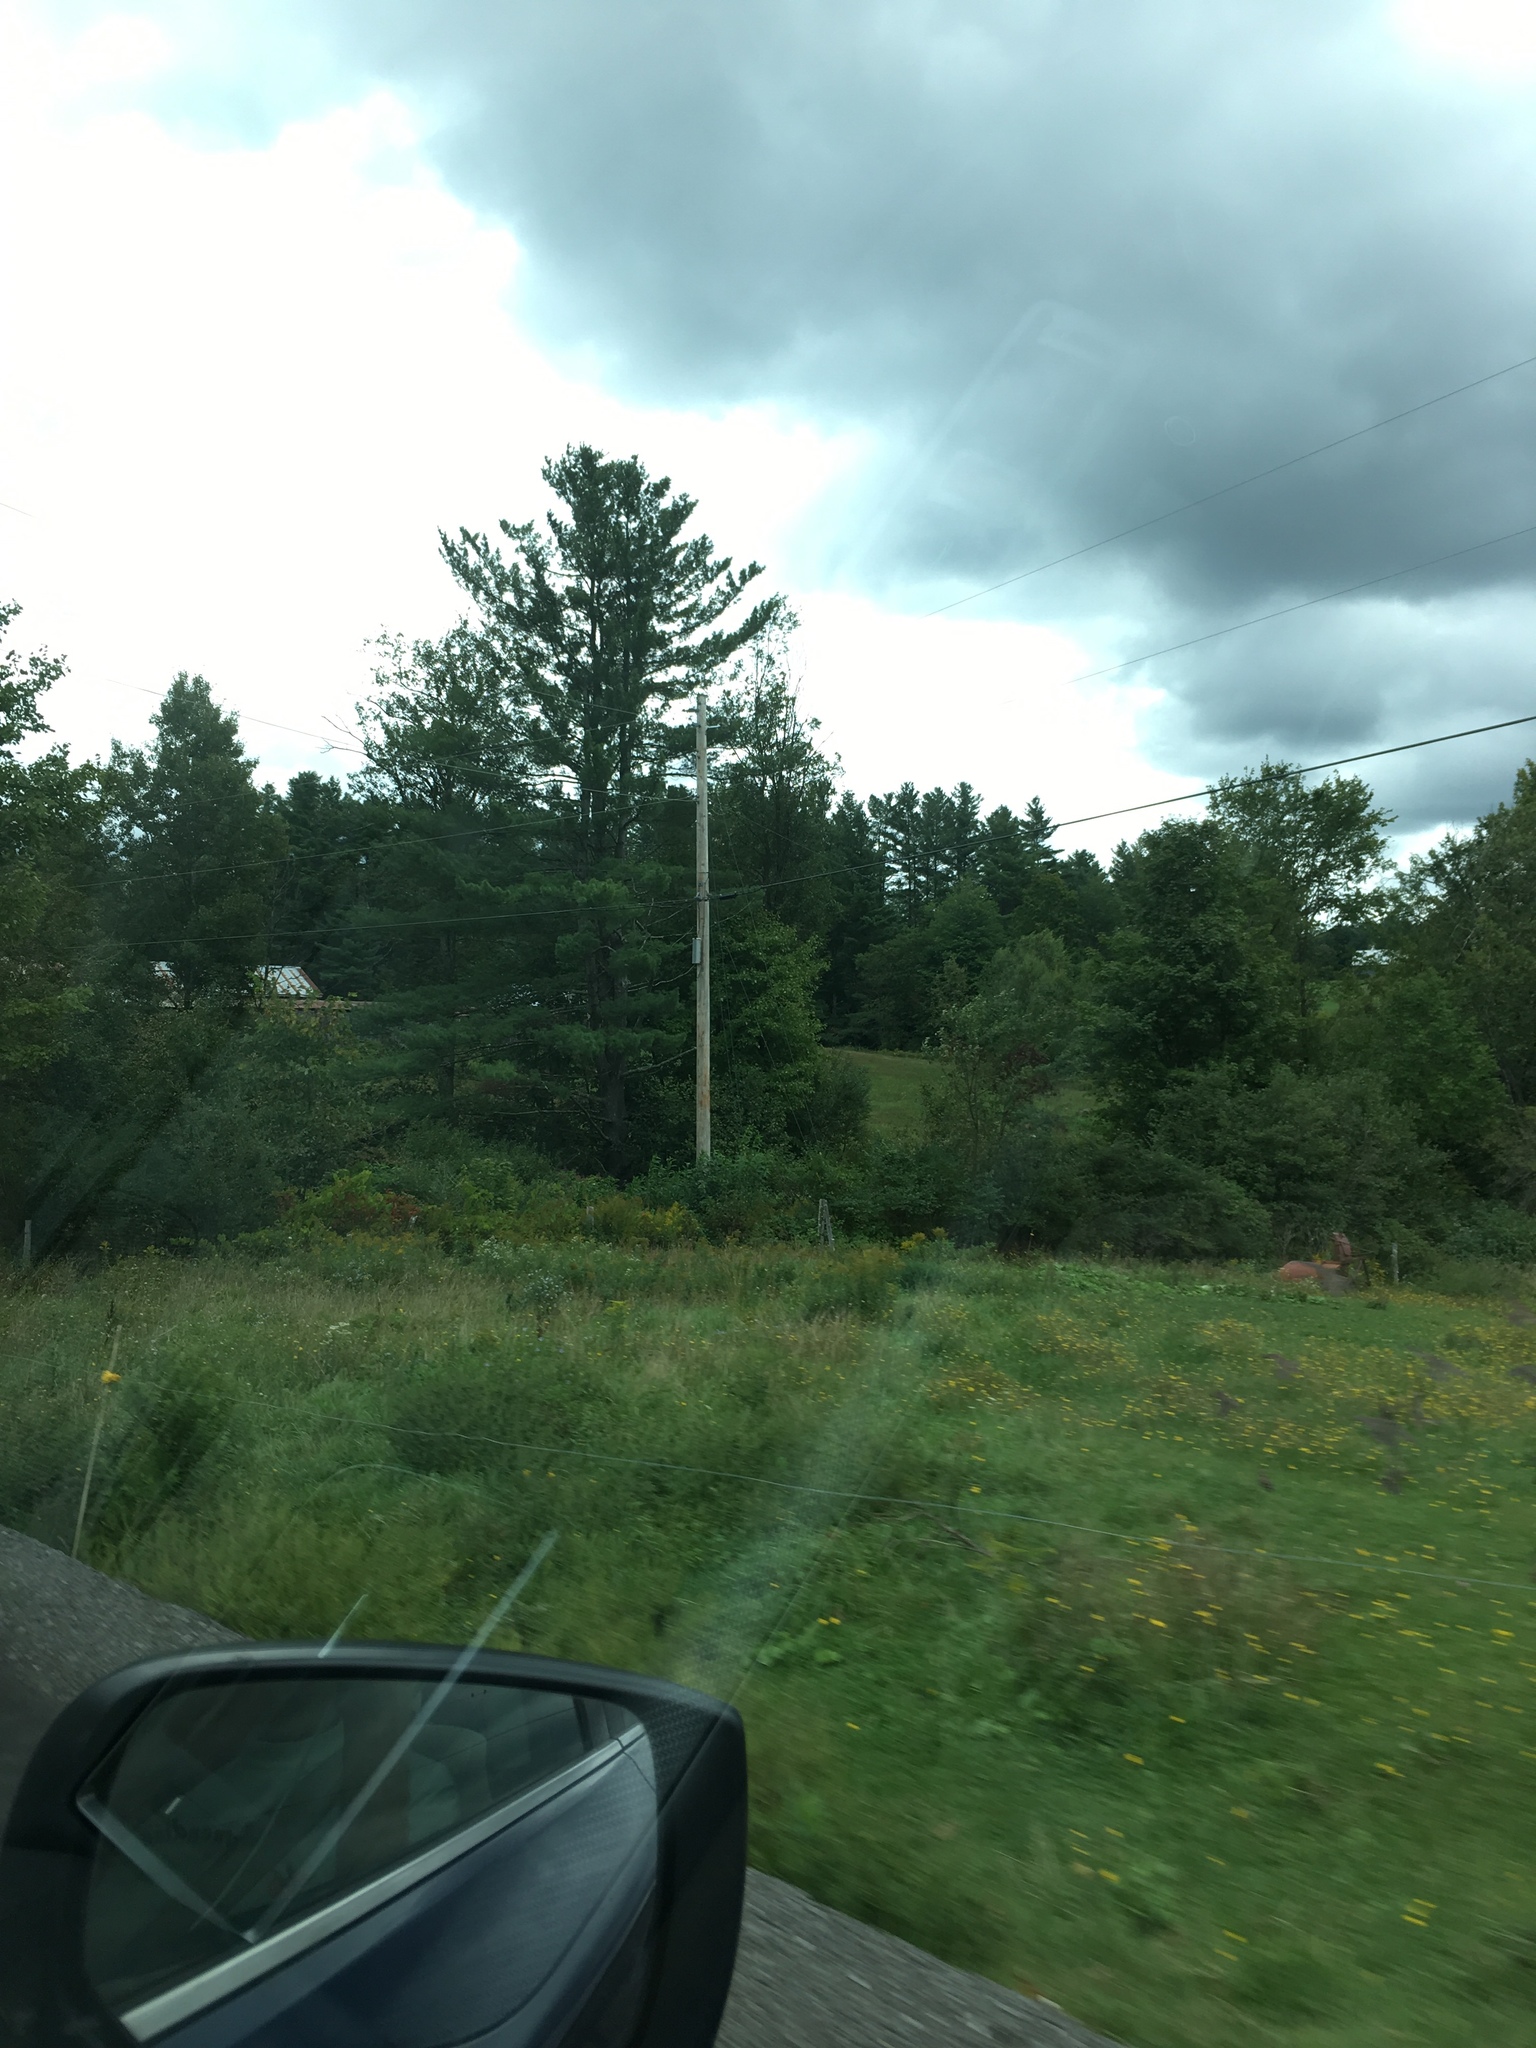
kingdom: Plantae
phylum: Tracheophyta
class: Pinopsida
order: Pinales
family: Pinaceae
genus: Pinus
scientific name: Pinus strobus
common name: Weymouth pine
